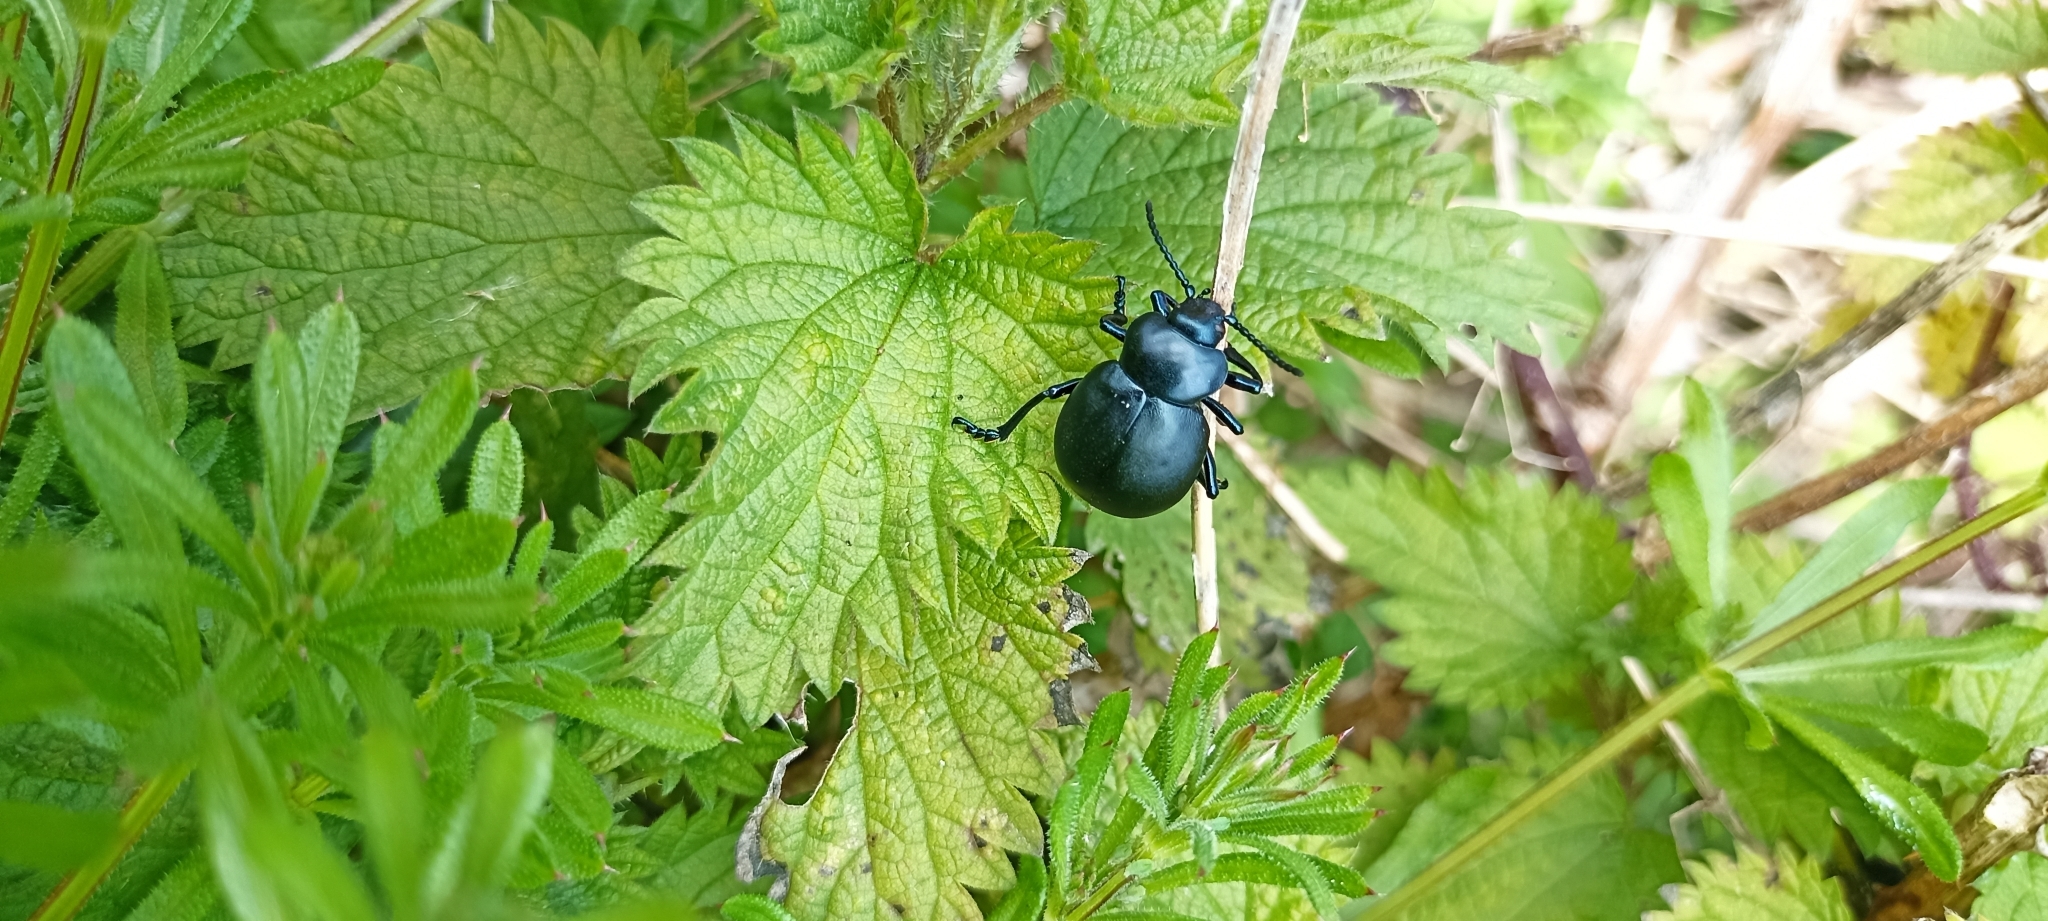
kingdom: Animalia
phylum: Arthropoda
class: Insecta
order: Coleoptera
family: Chrysomelidae
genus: Timarcha
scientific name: Timarcha tenebricosa
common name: Bloody-nosed beetle
